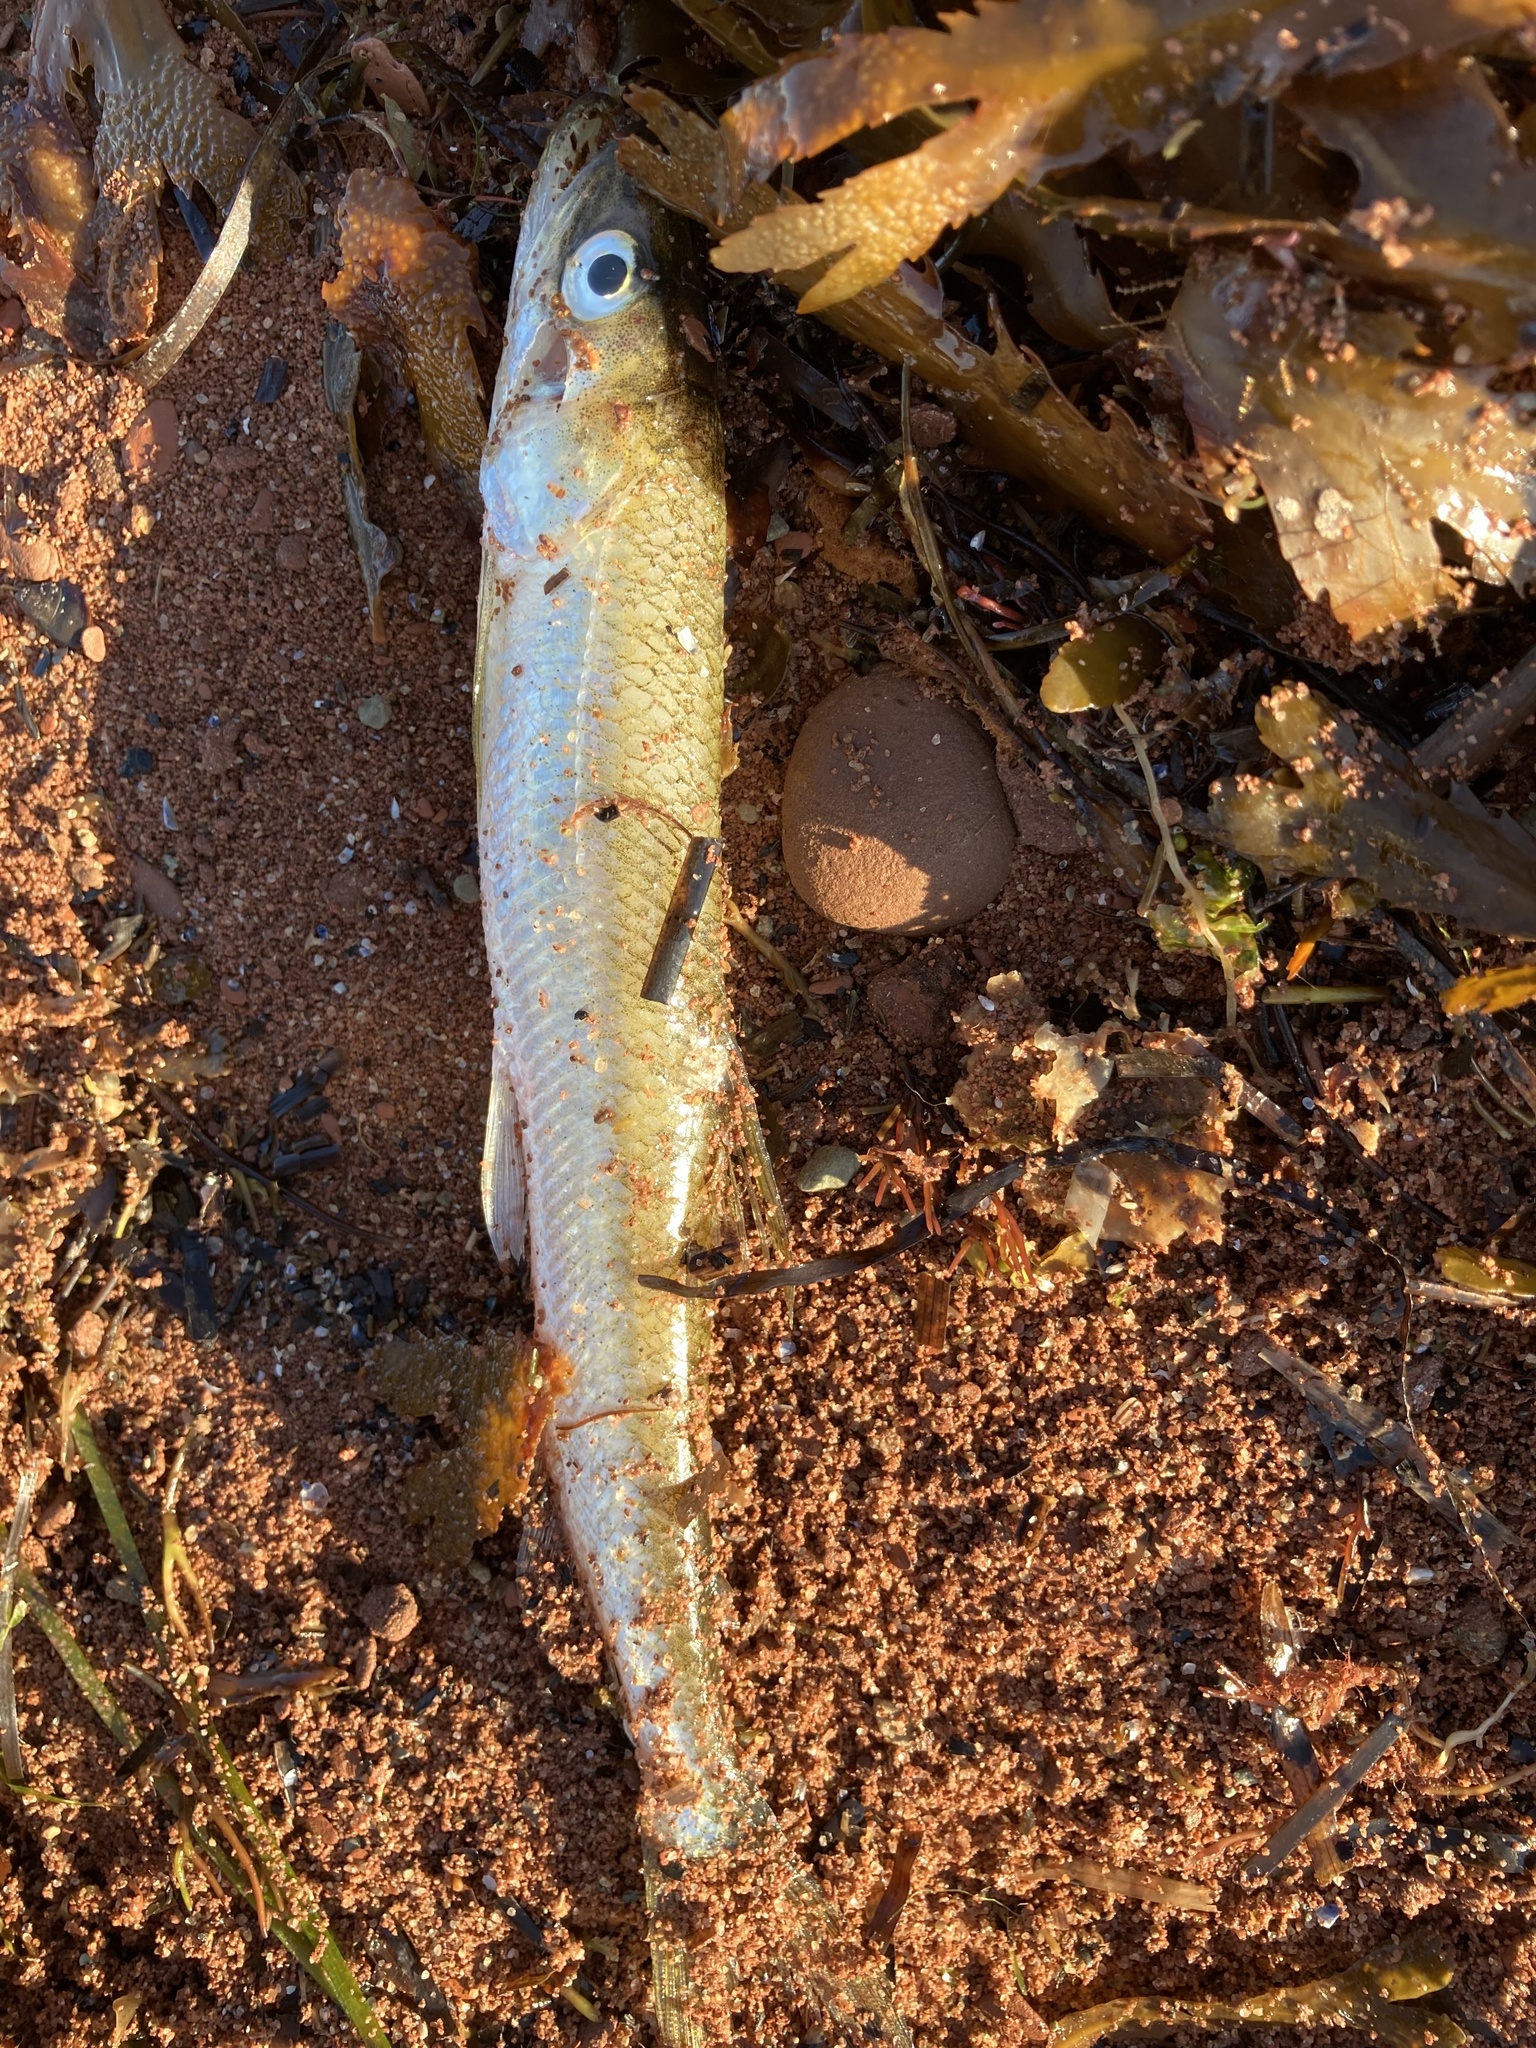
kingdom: Animalia
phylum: Chordata
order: Osmeriformes
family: Osmeridae
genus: Osmerus
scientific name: Osmerus mordax
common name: Rainbow smelt
